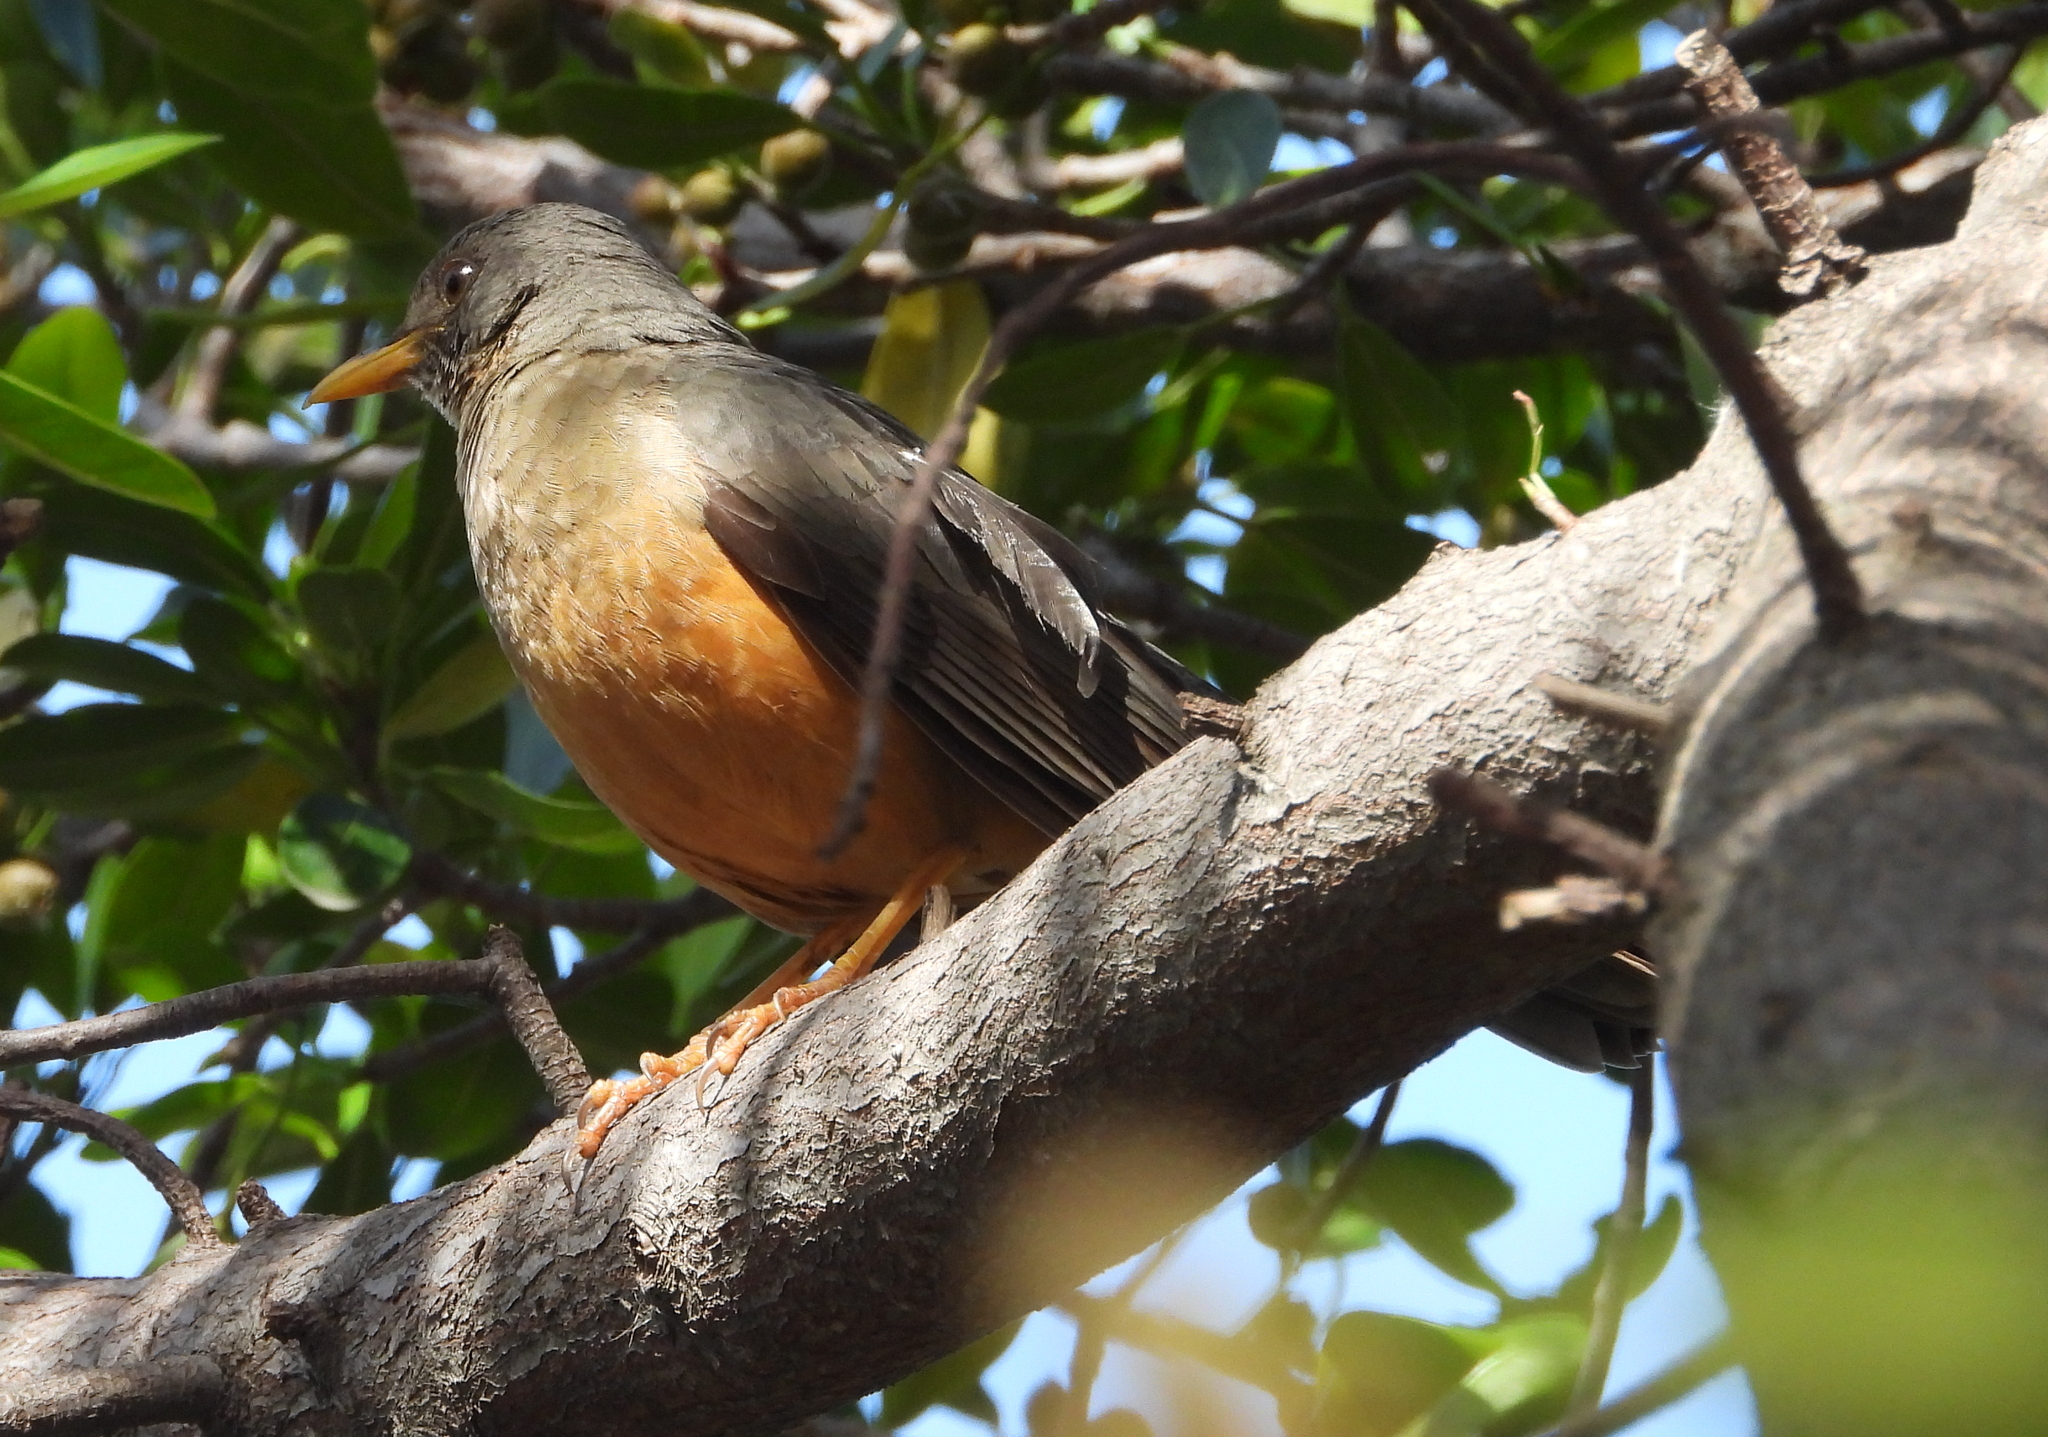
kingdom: Animalia
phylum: Chordata
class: Aves
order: Passeriformes
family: Turdidae
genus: Turdus
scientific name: Turdus olivaceus
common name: Olive thrush
